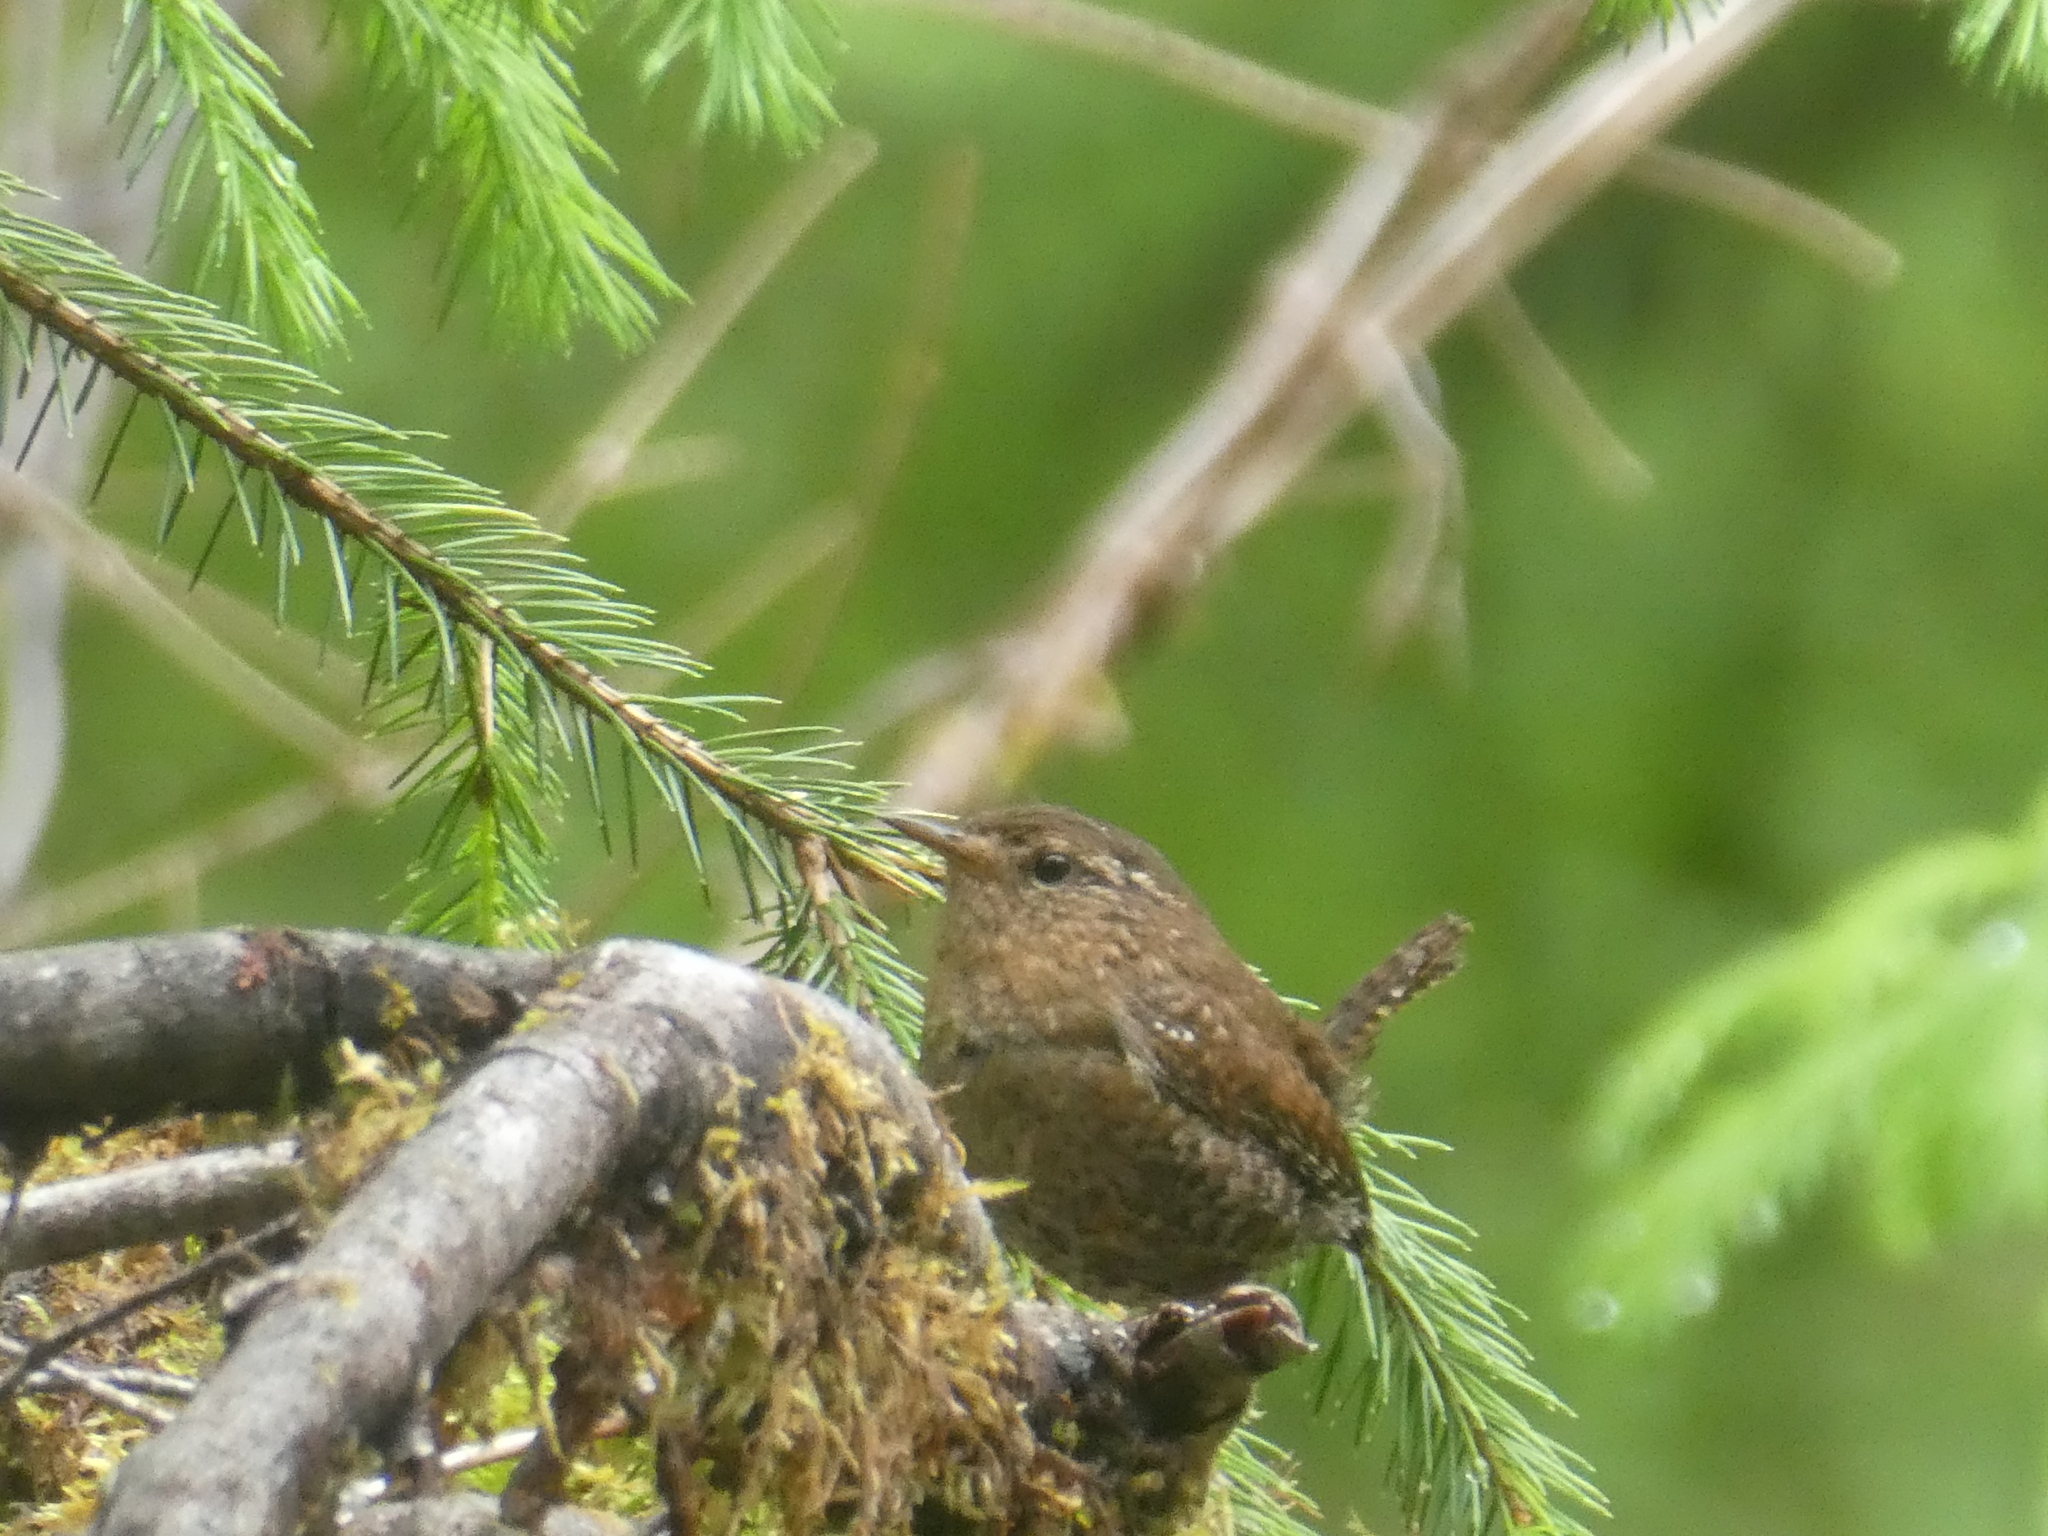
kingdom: Animalia
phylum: Chordata
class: Aves
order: Passeriformes
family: Troglodytidae
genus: Troglodytes
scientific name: Troglodytes pacificus
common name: Pacific wren
